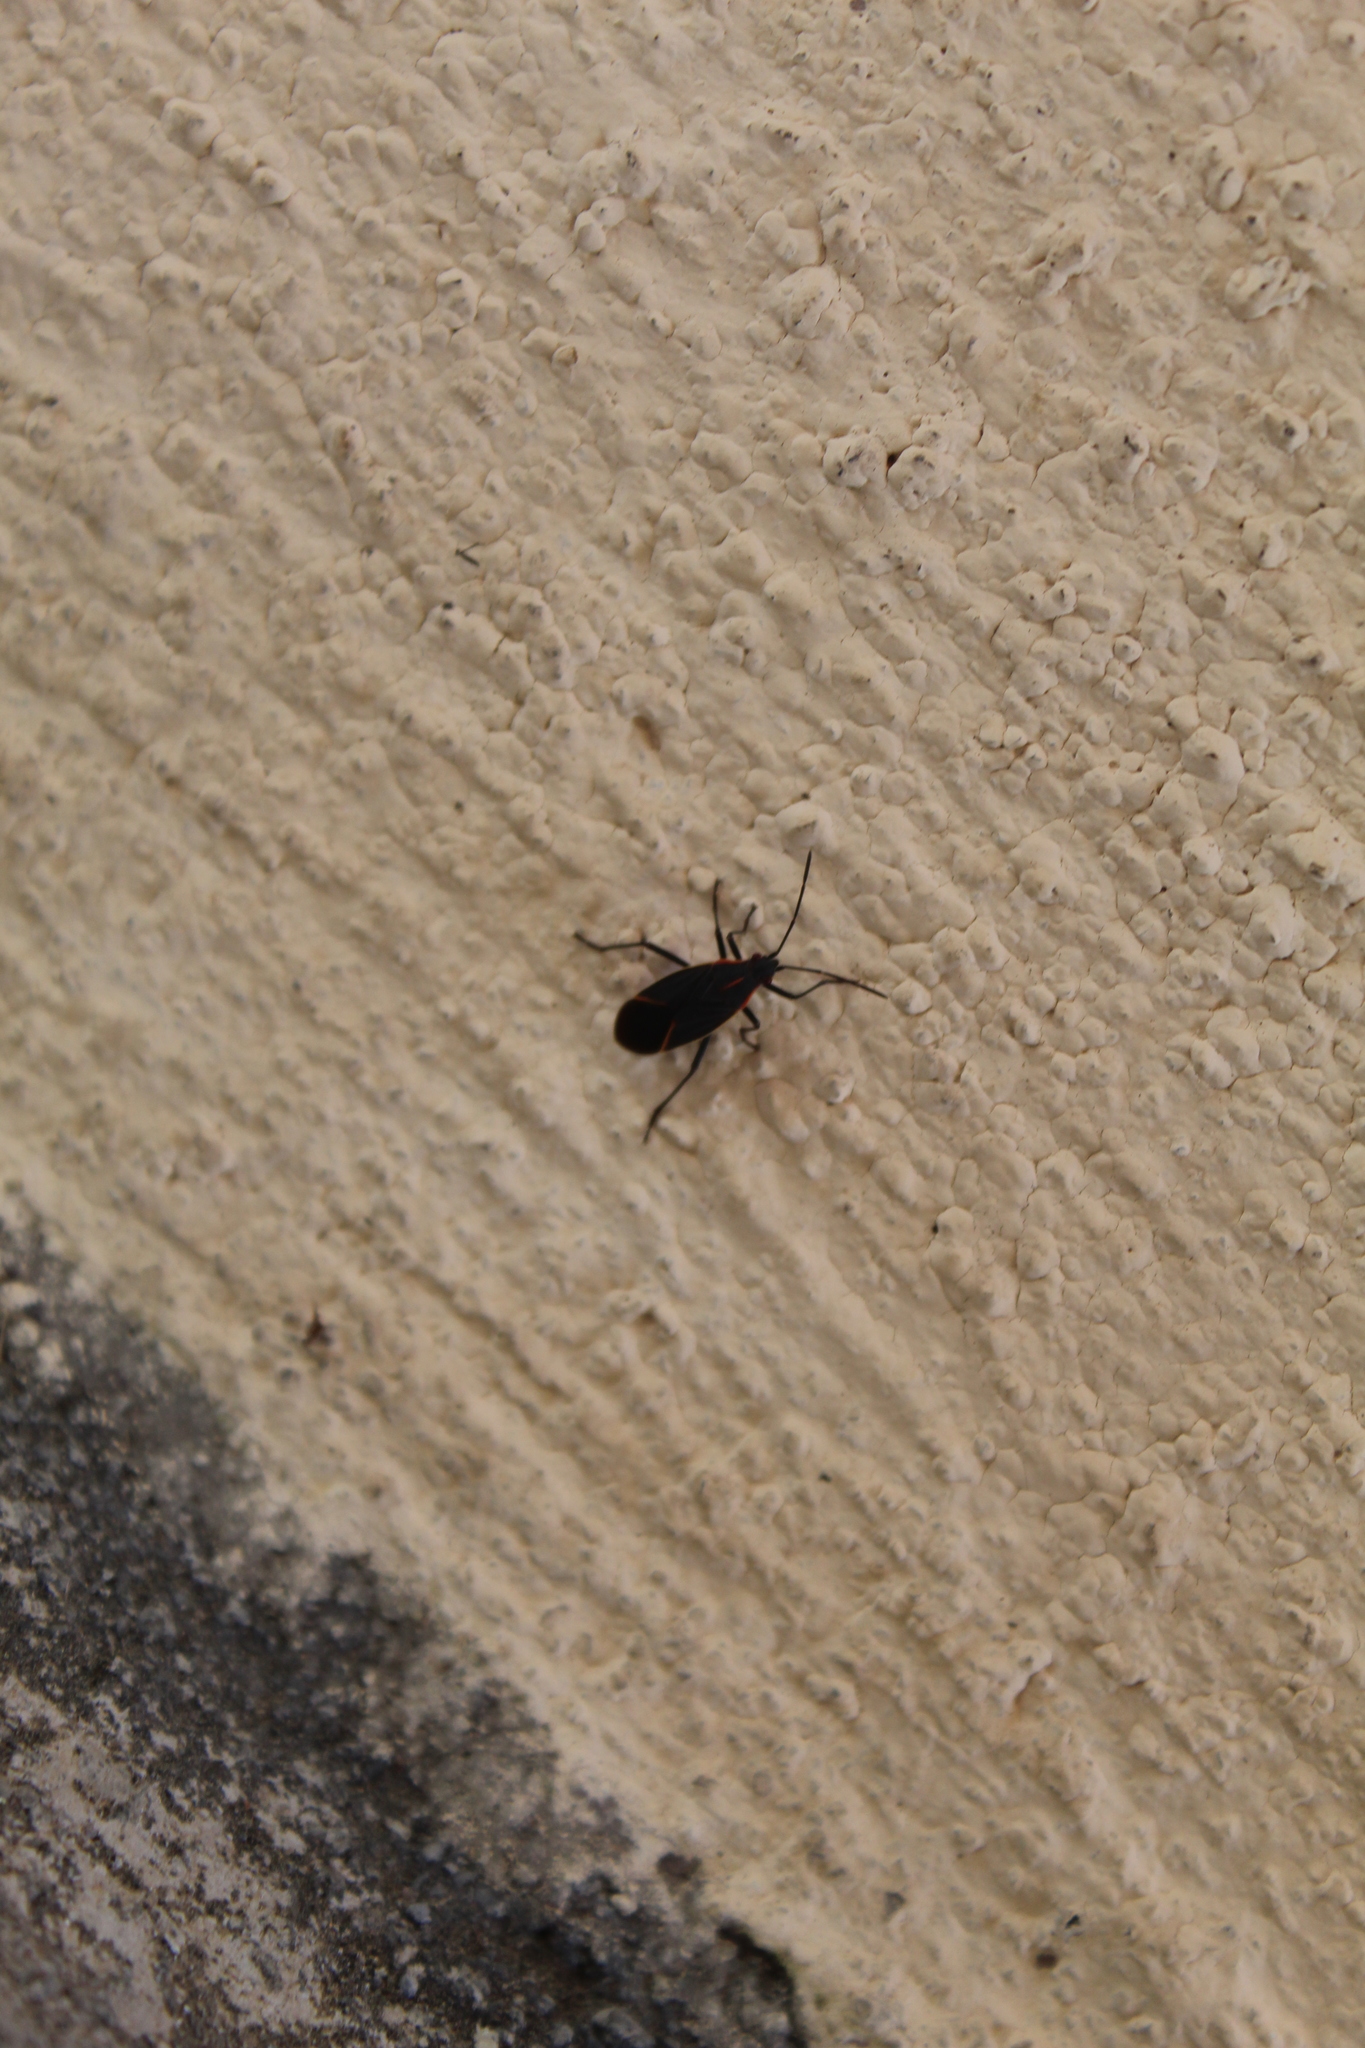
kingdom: Animalia
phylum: Arthropoda
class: Insecta
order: Hemiptera
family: Rhopalidae
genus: Boisea
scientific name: Boisea trivittata
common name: Boxelder bug
